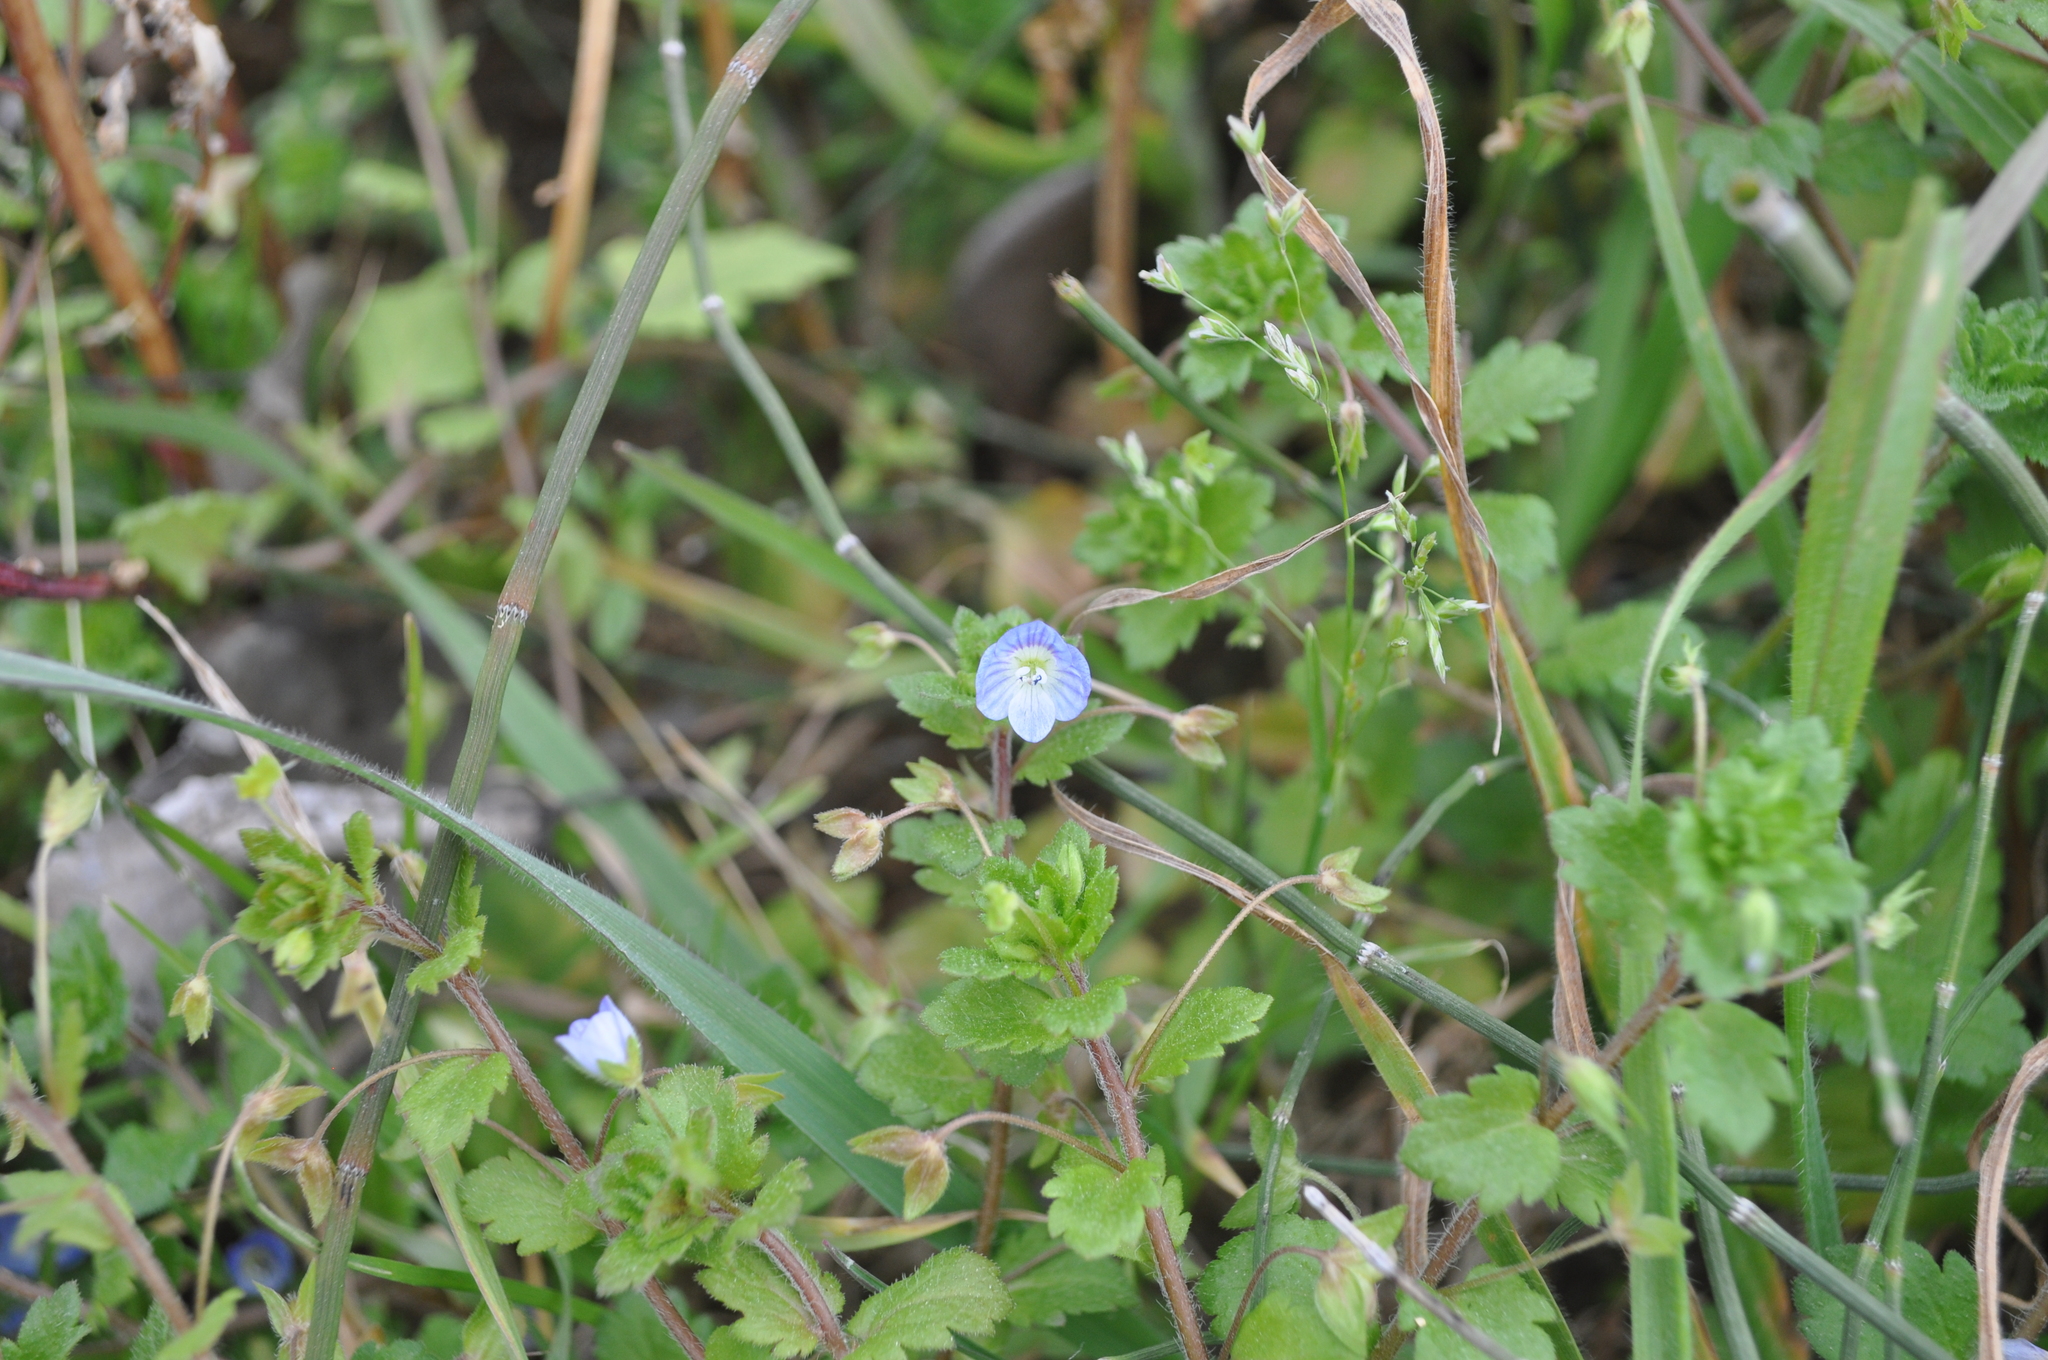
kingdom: Plantae
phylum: Tracheophyta
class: Magnoliopsida
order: Lamiales
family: Plantaginaceae
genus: Veronica
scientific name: Veronica persica
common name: Common field-speedwell
